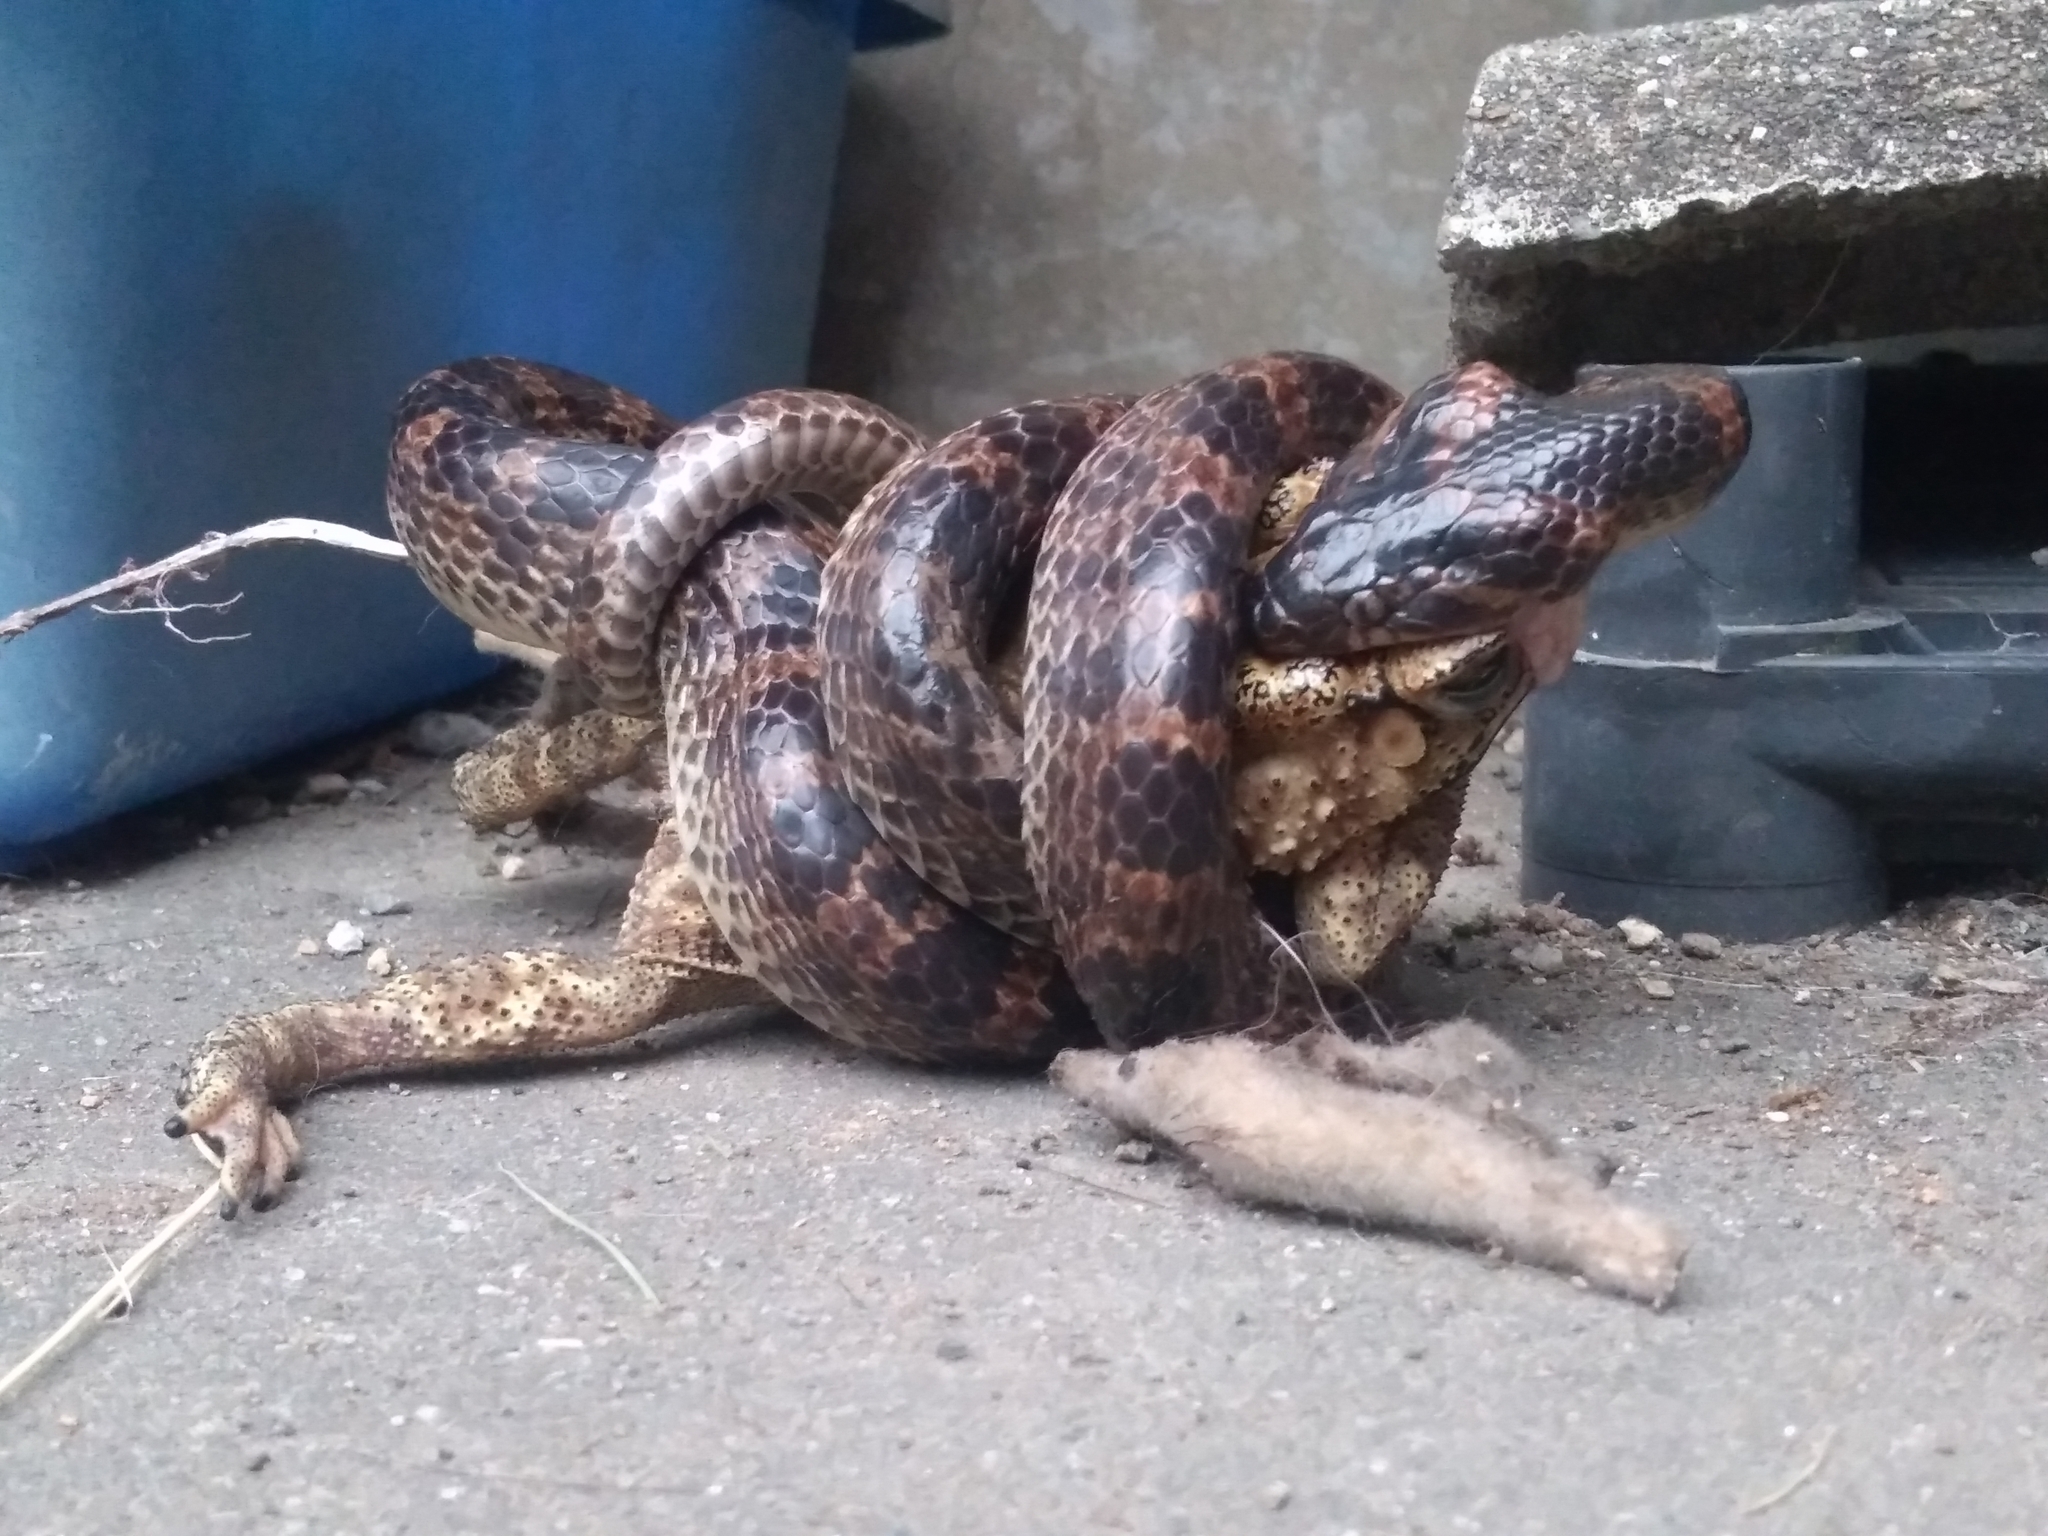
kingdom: Animalia
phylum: Chordata
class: Squamata
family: Colubridae
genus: Lycodon
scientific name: Lycodon rufozonatus
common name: Red-banded snake
